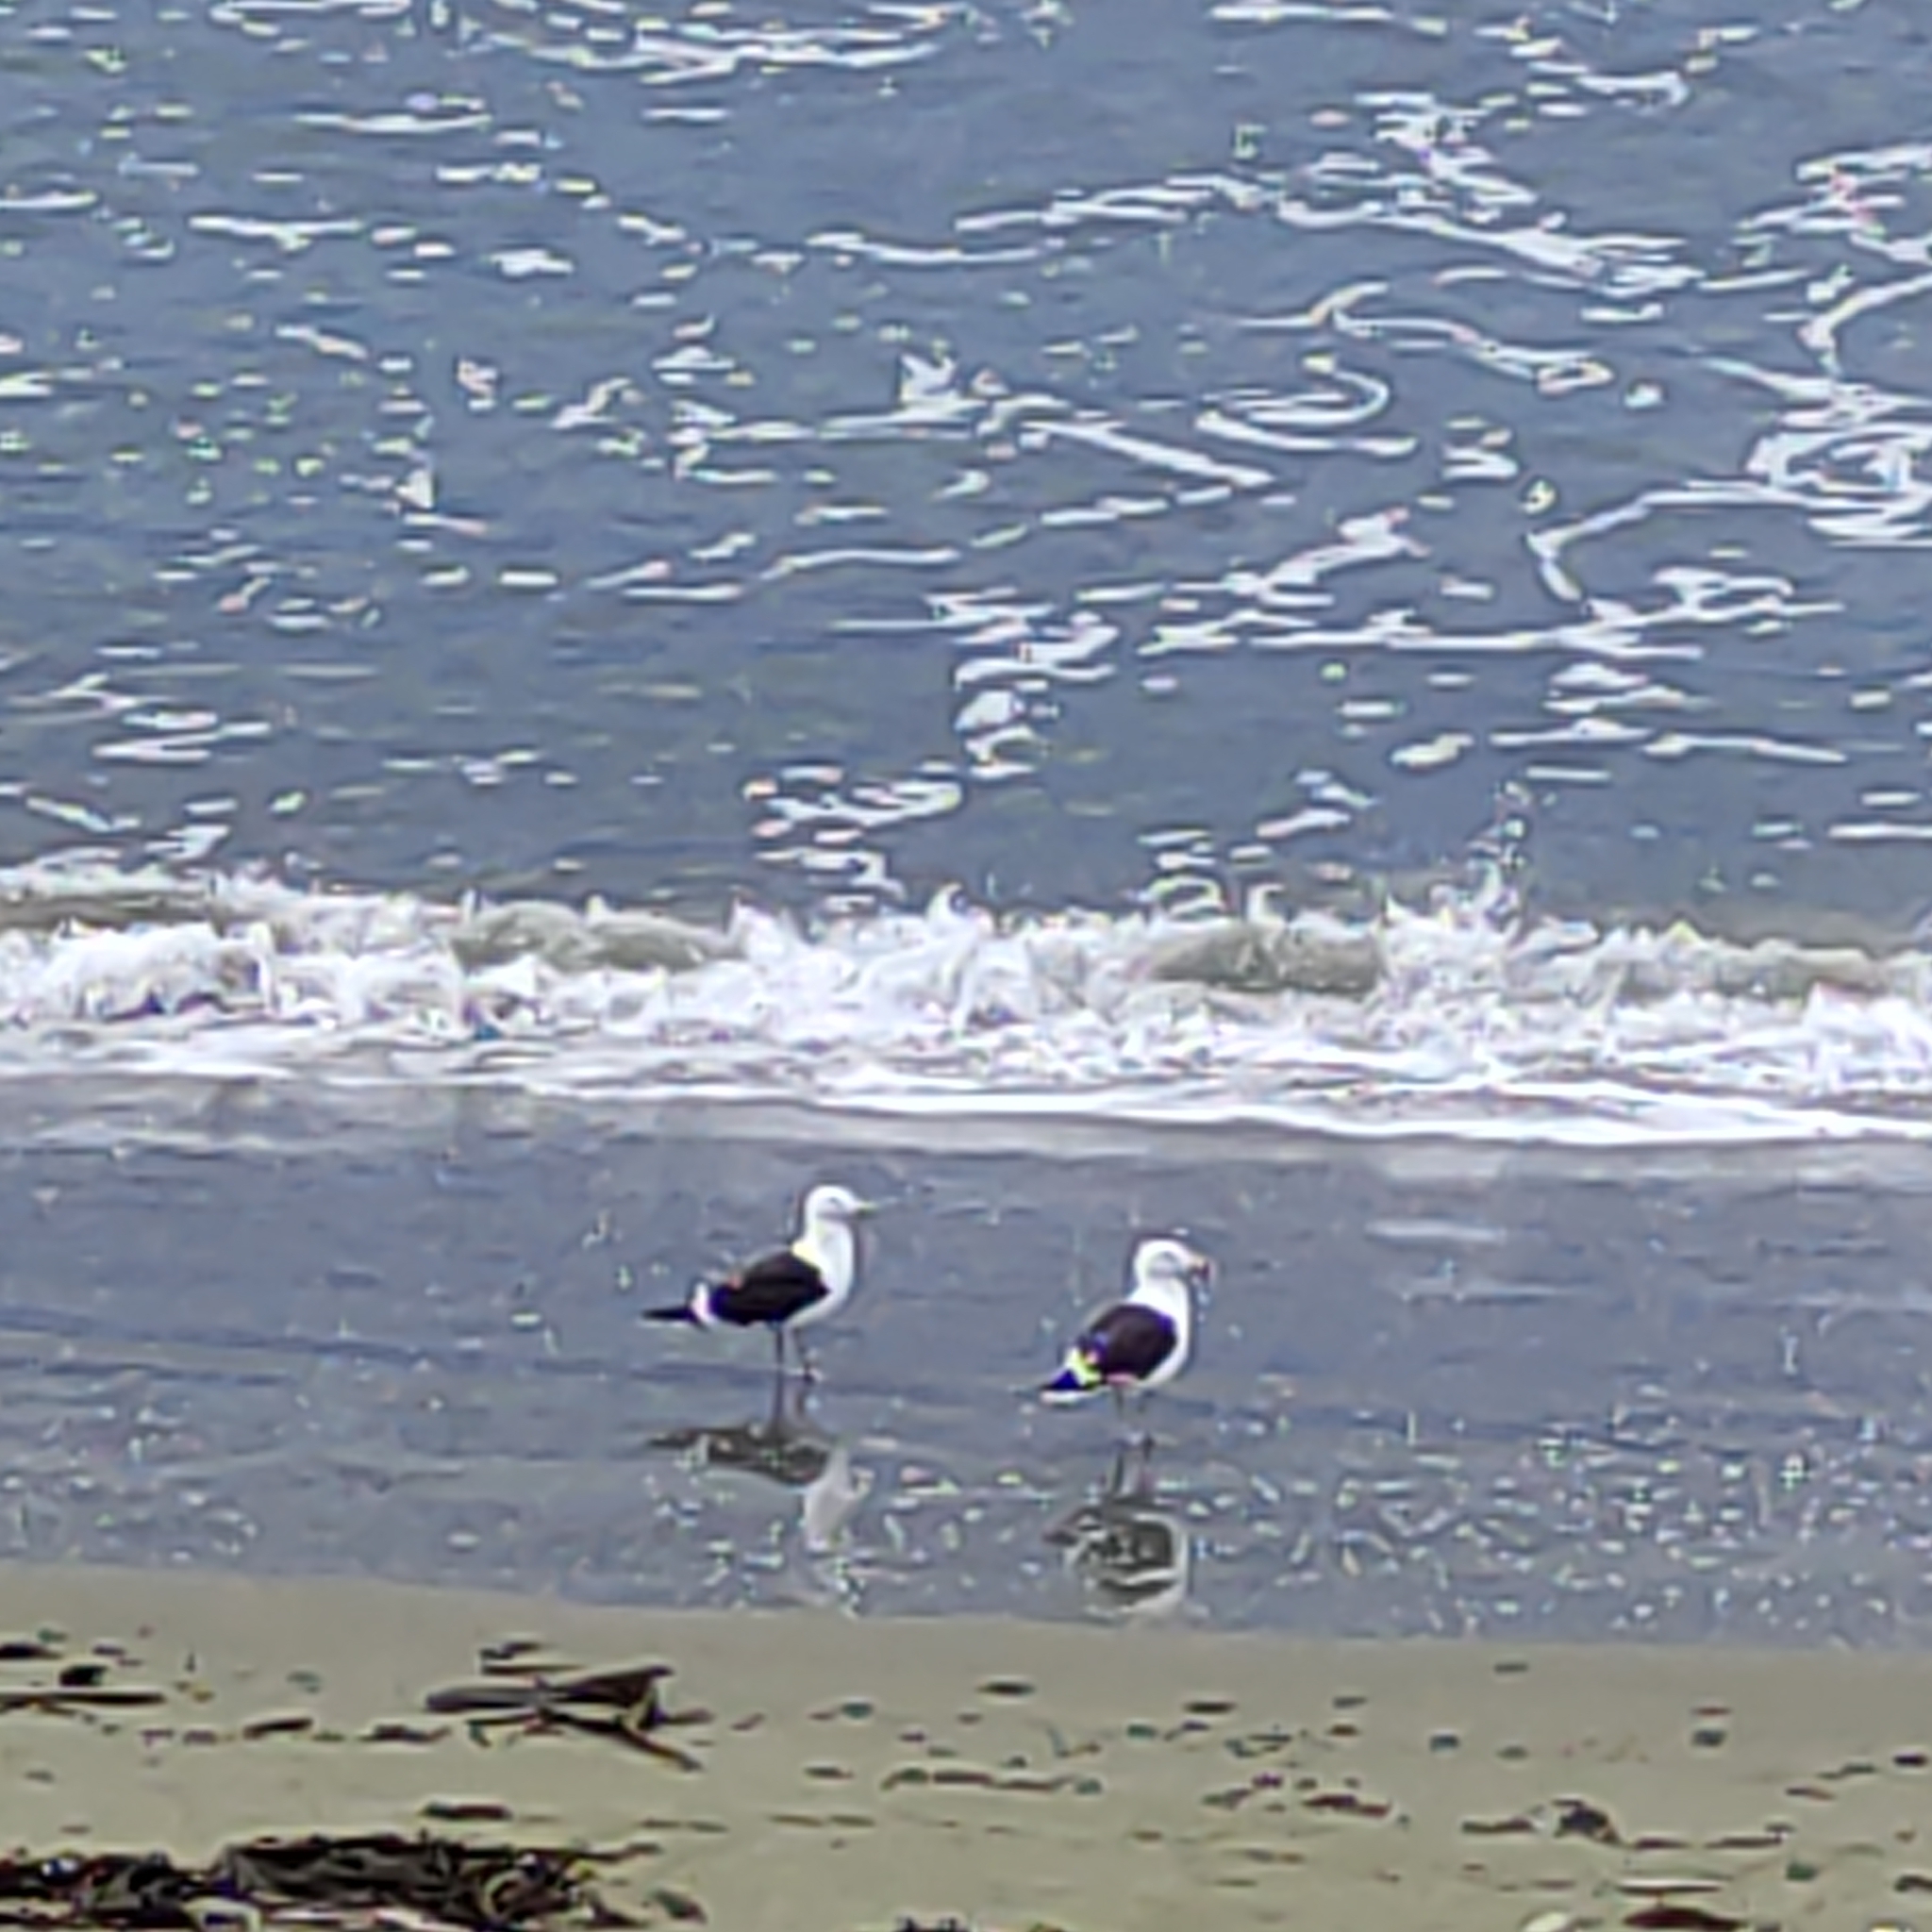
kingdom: Animalia
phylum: Chordata
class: Aves
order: Charadriiformes
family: Laridae
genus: Larus
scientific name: Larus dominicanus
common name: Kelp gull
